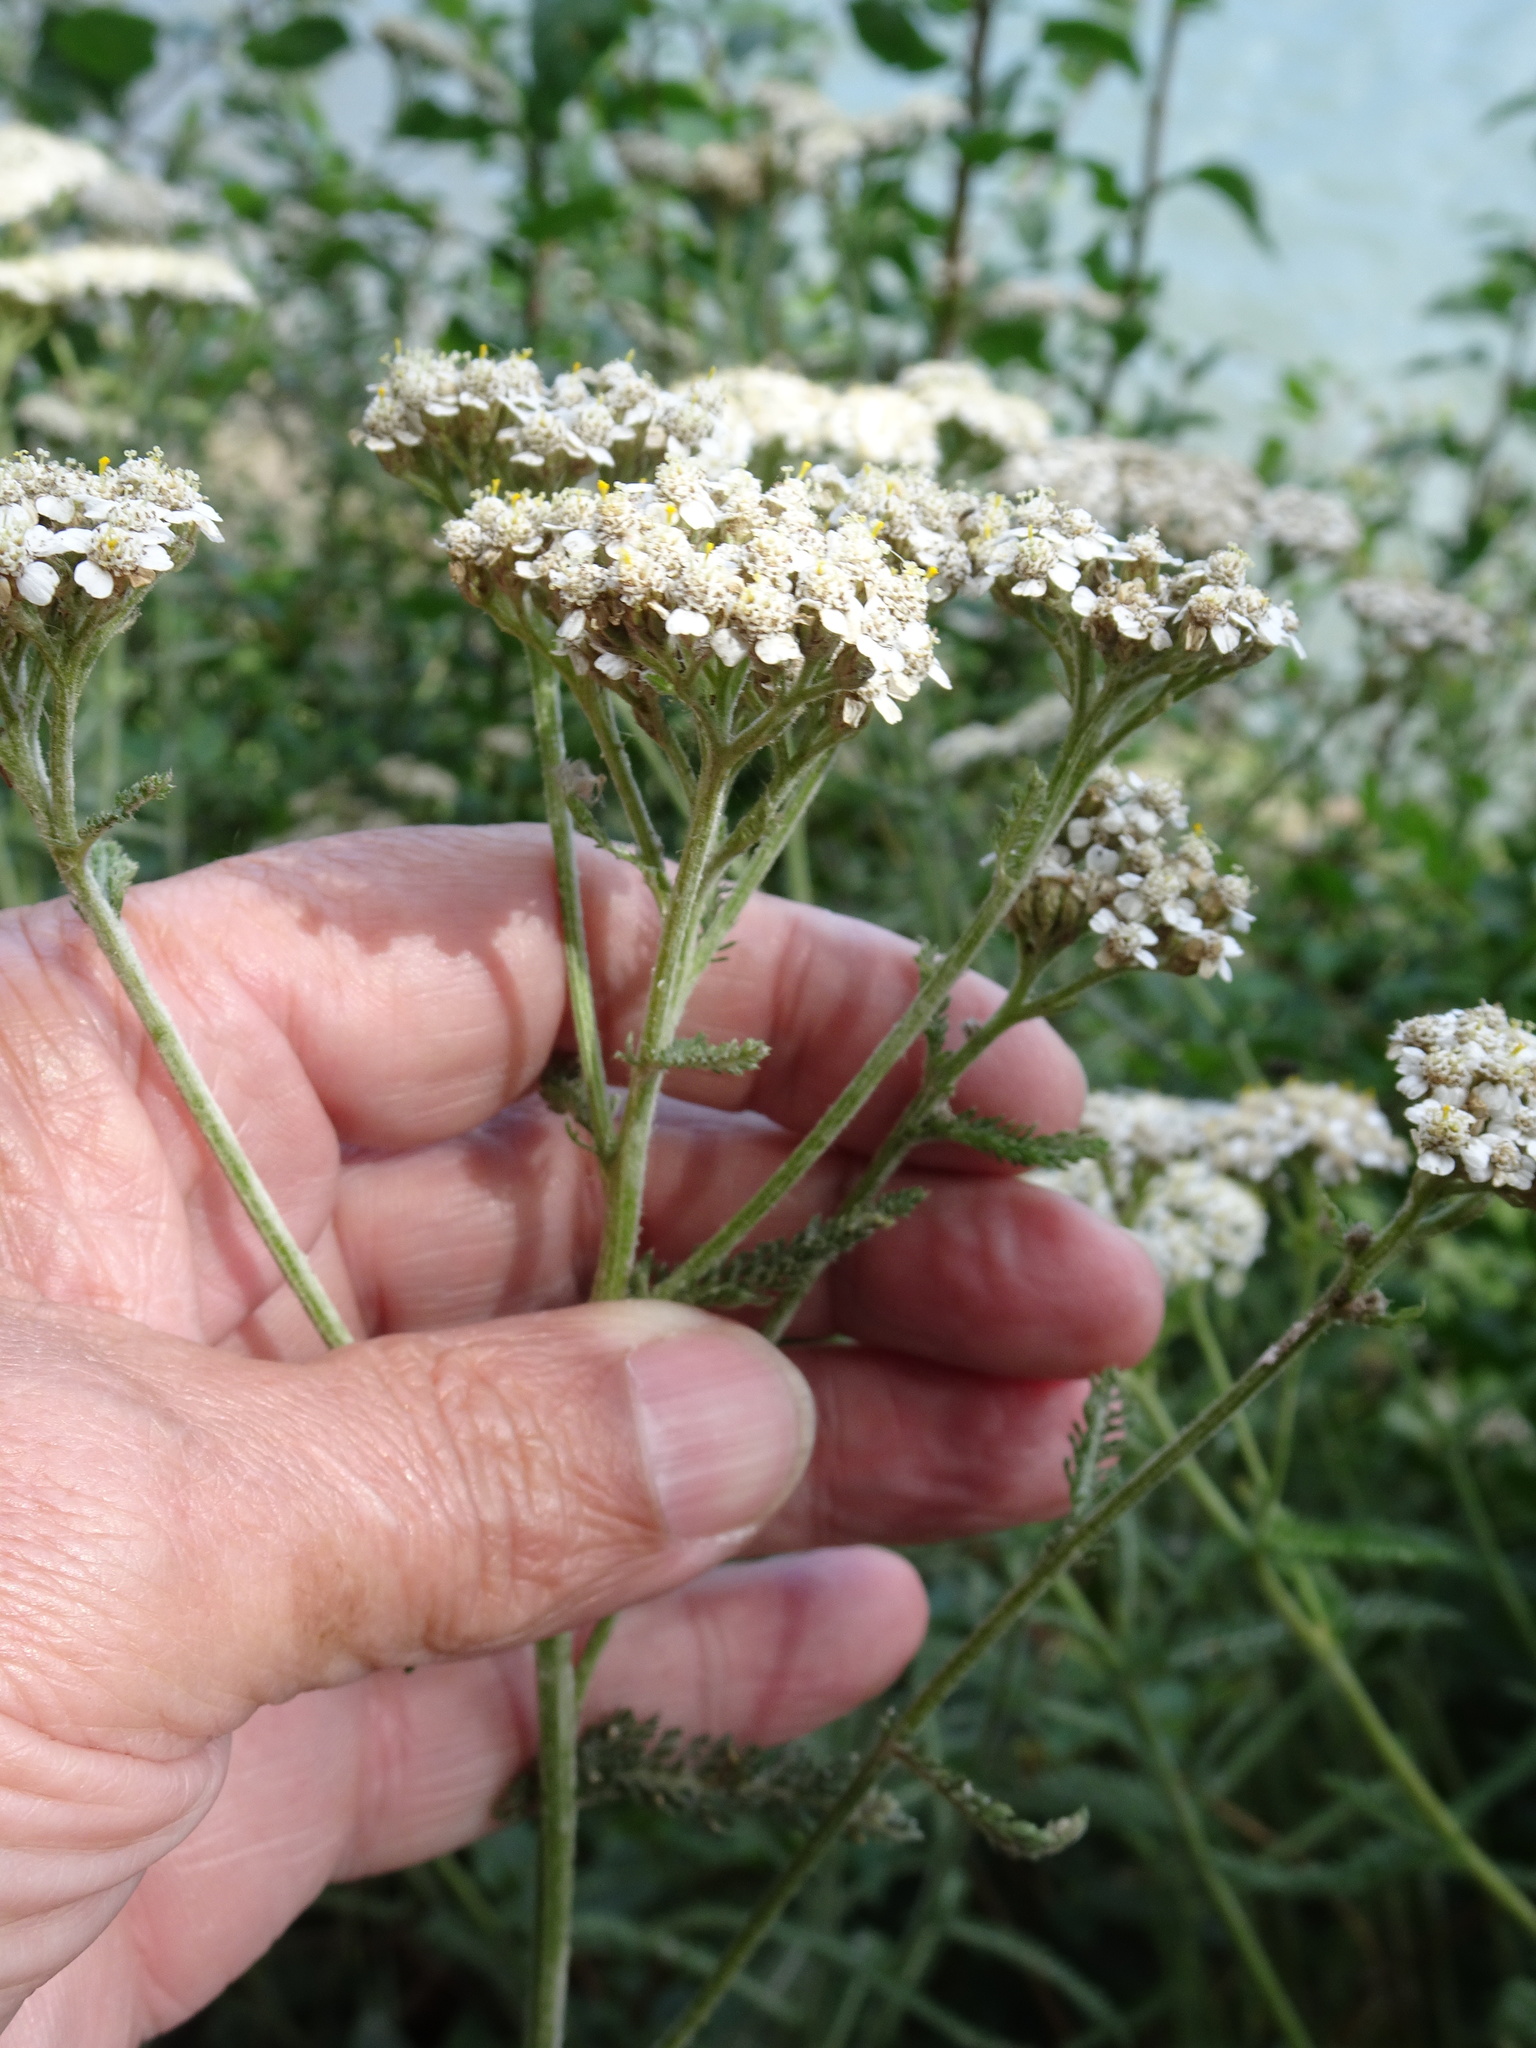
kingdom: Plantae
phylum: Tracheophyta
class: Magnoliopsida
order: Asterales
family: Asteraceae
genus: Achillea
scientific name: Achillea millefolium
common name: Yarrow
